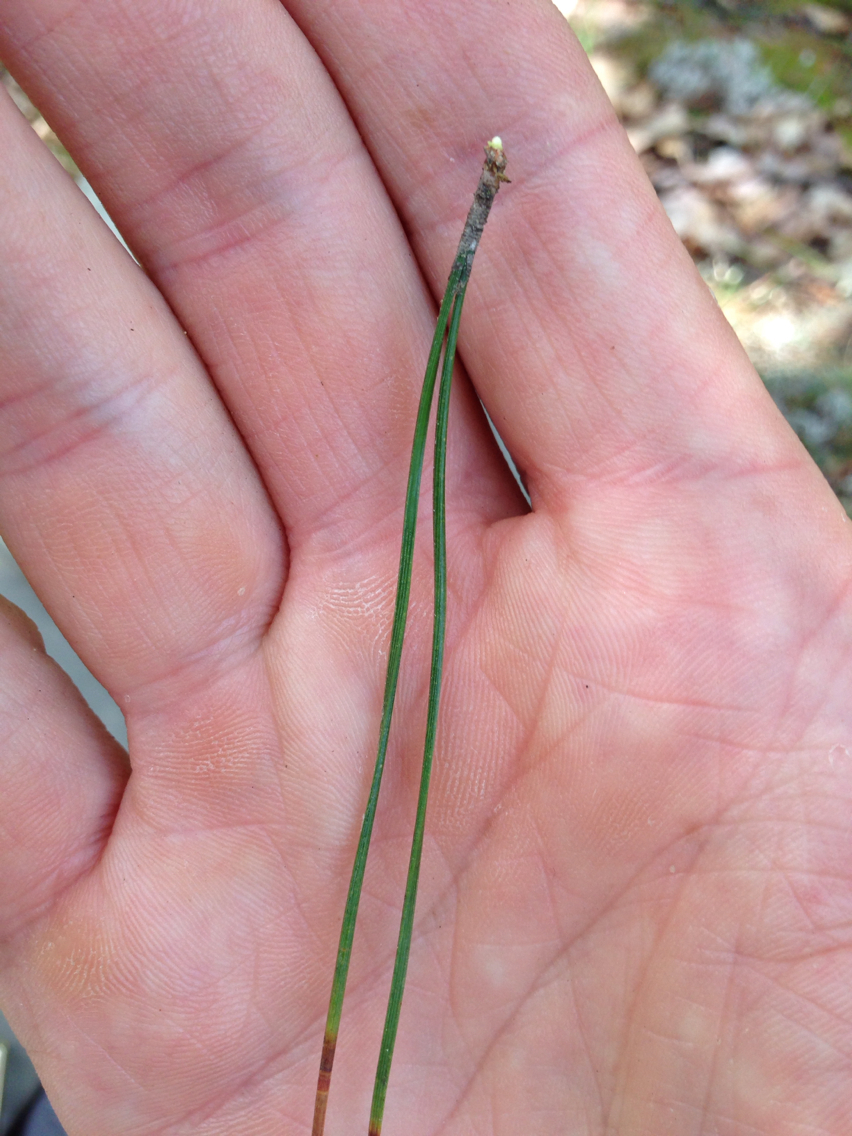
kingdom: Plantae
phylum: Tracheophyta
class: Pinopsida
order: Pinales
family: Pinaceae
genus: Pinus
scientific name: Pinus resinosa
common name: Norway pine
